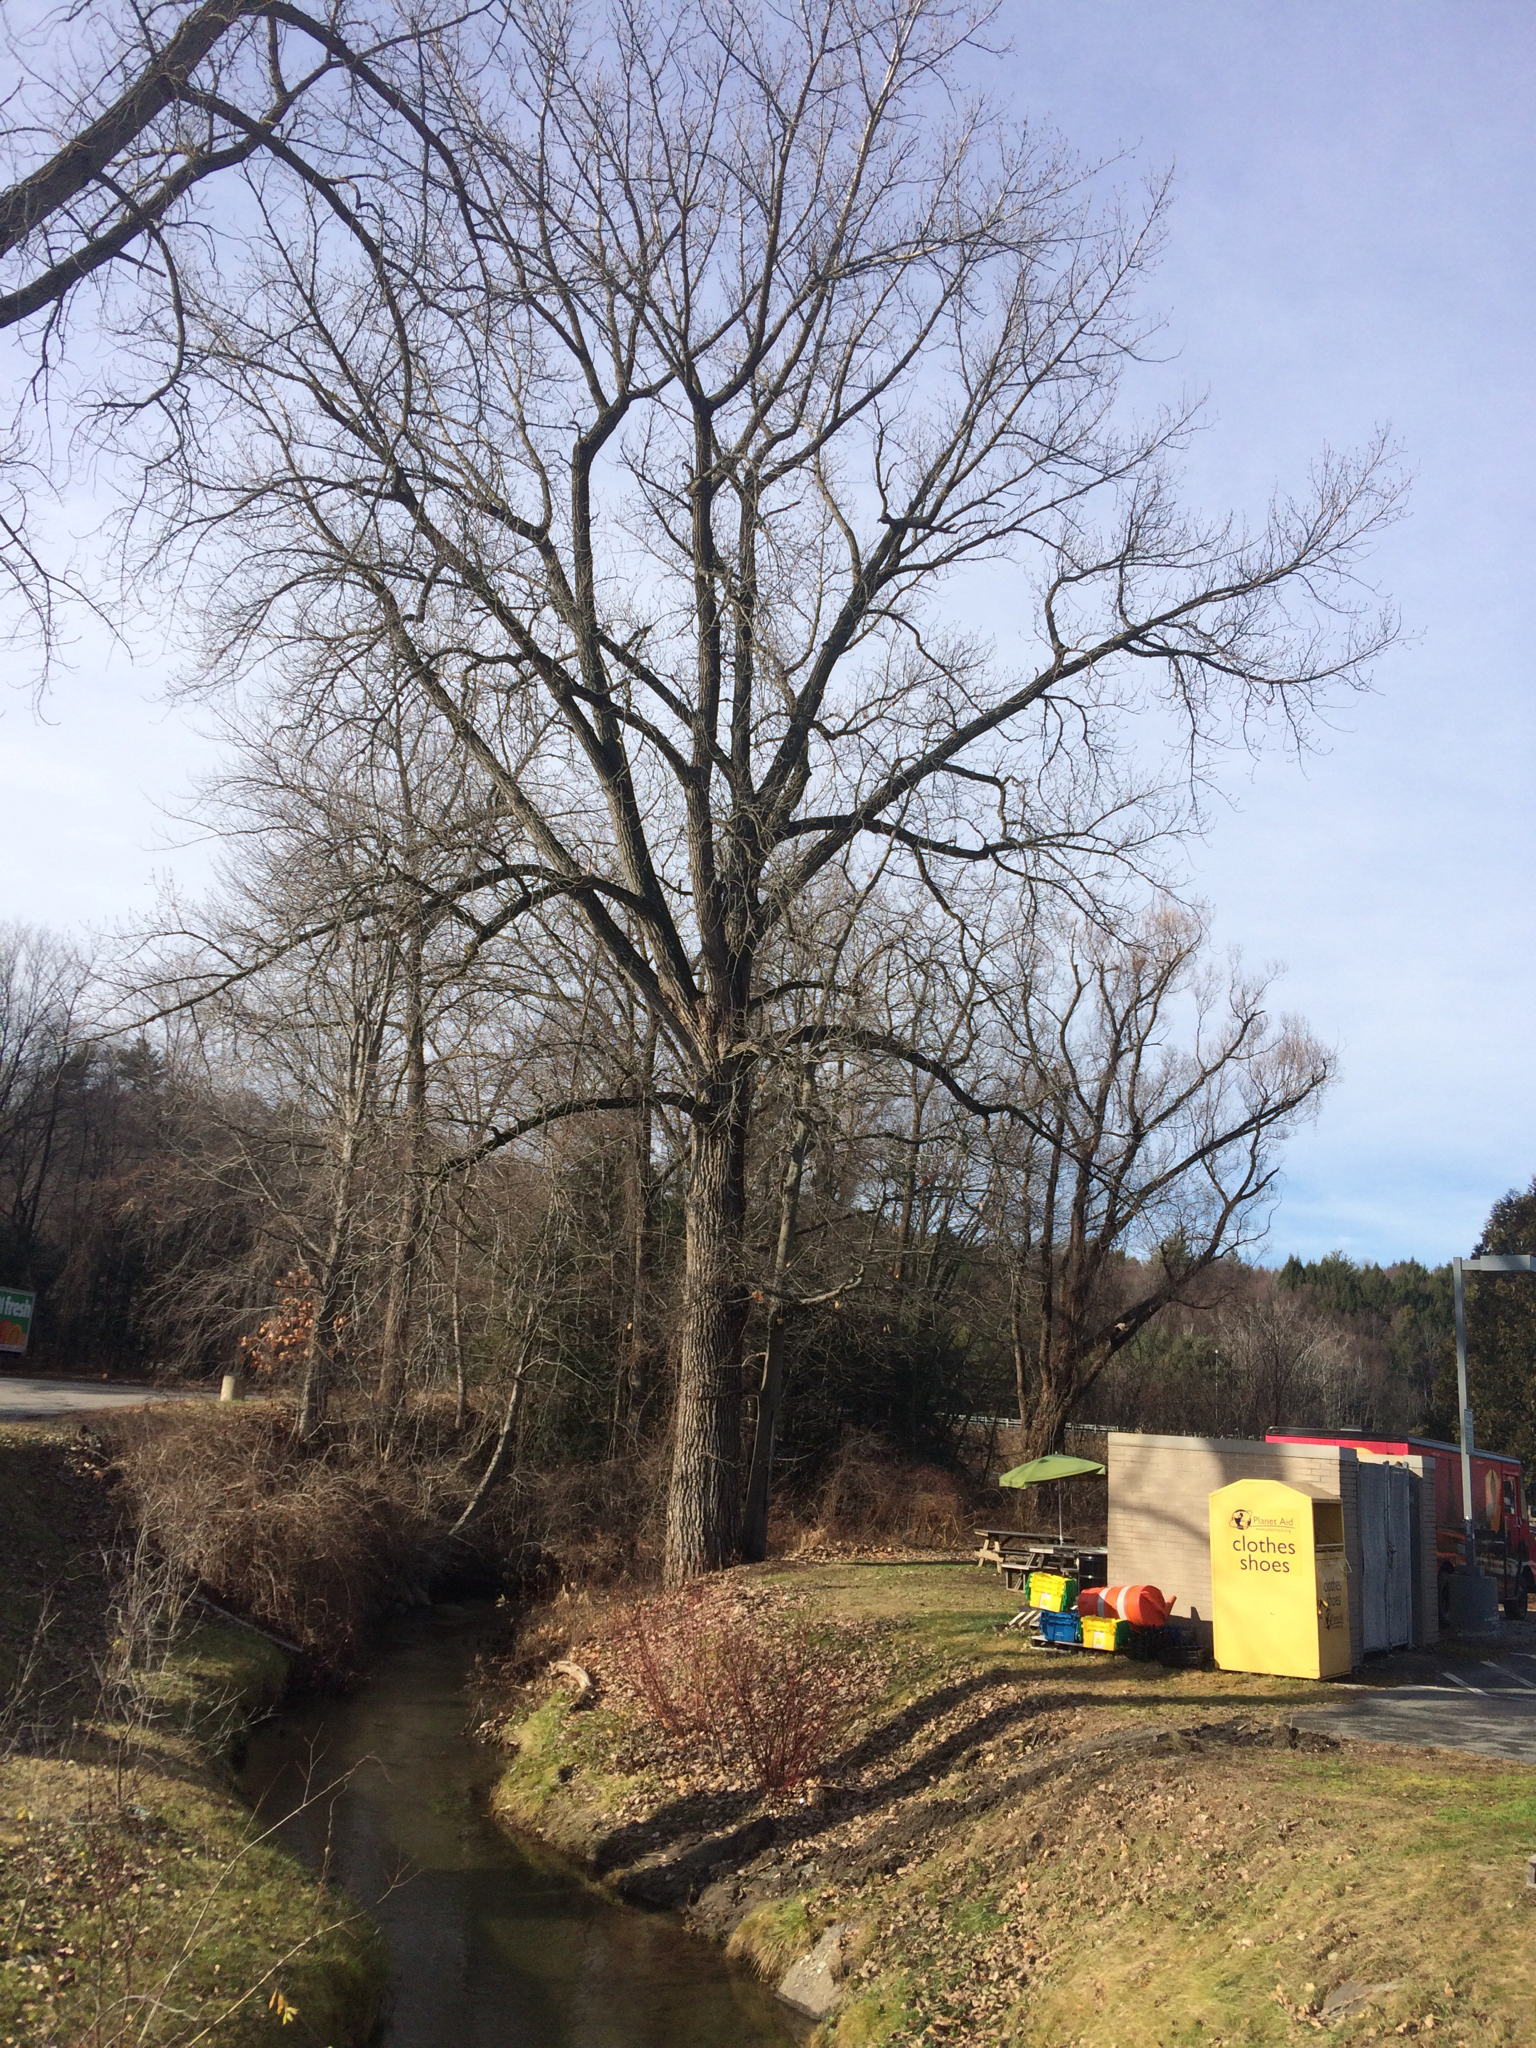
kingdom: Plantae
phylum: Tracheophyta
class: Magnoliopsida
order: Malpighiales
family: Salicaceae
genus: Populus
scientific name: Populus deltoides
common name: Eastern cottonwood
